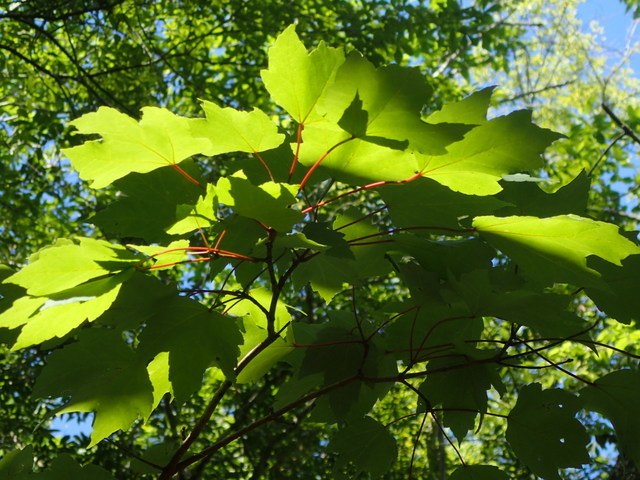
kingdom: Plantae
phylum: Tracheophyta
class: Magnoliopsida
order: Sapindales
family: Sapindaceae
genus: Acer
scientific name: Acer rubrum
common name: Red maple
